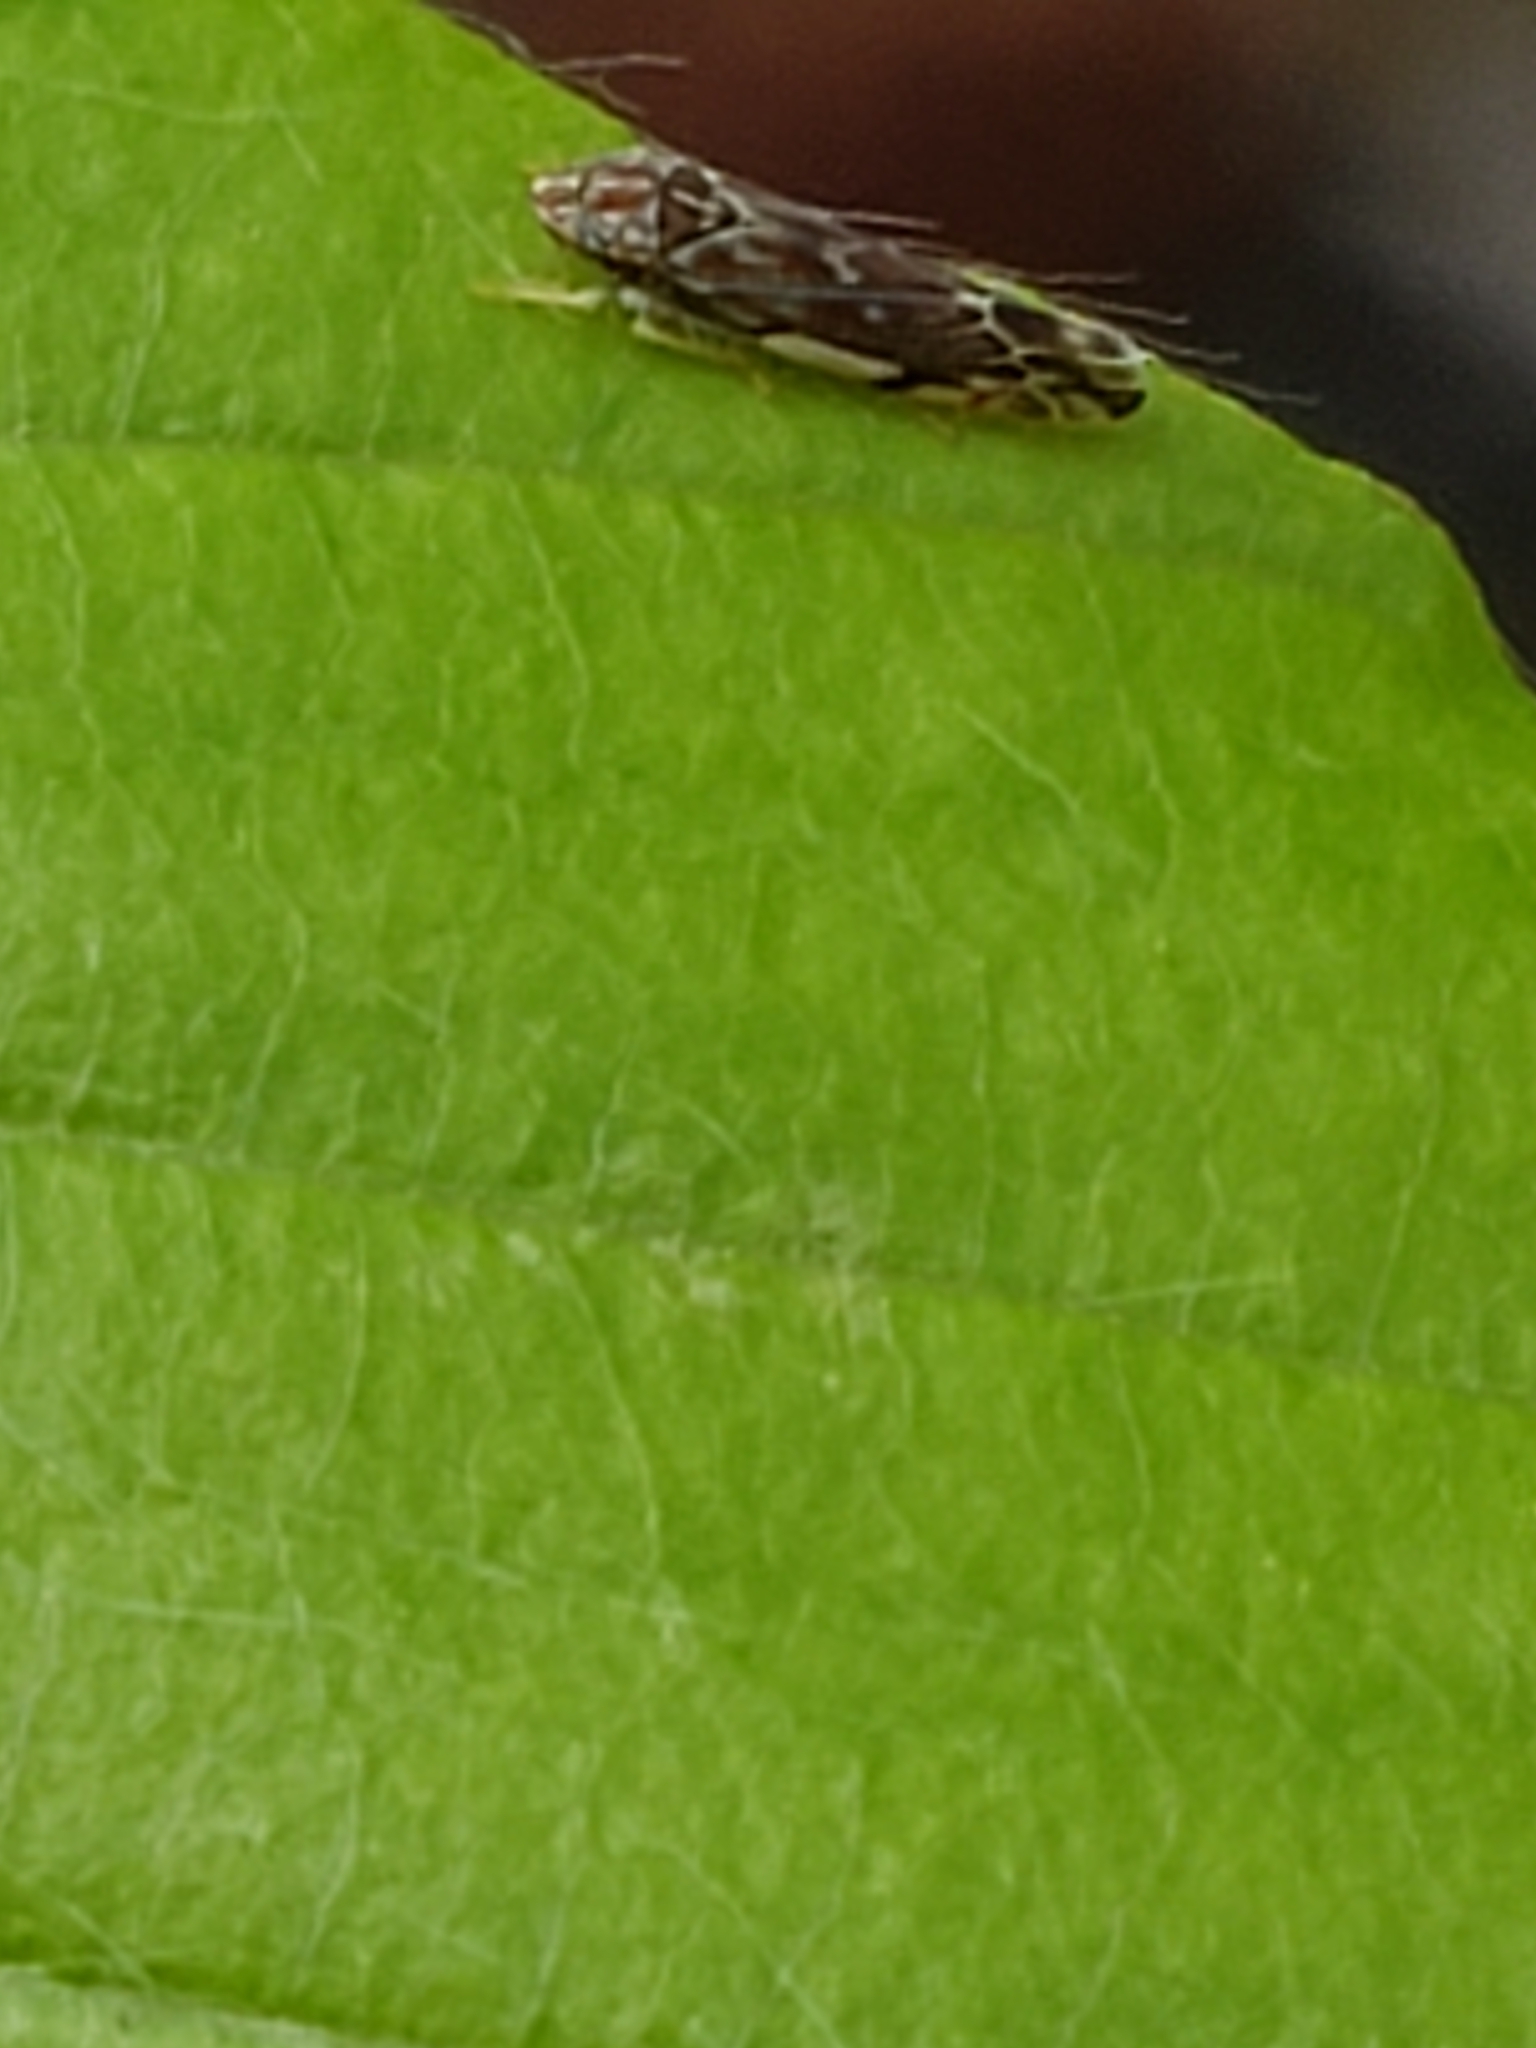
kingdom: Animalia
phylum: Arthropoda
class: Insecta
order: Hemiptera
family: Cicadellidae
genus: Erasmoneura
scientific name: Erasmoneura vulnerata
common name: The wounded leafhopper
